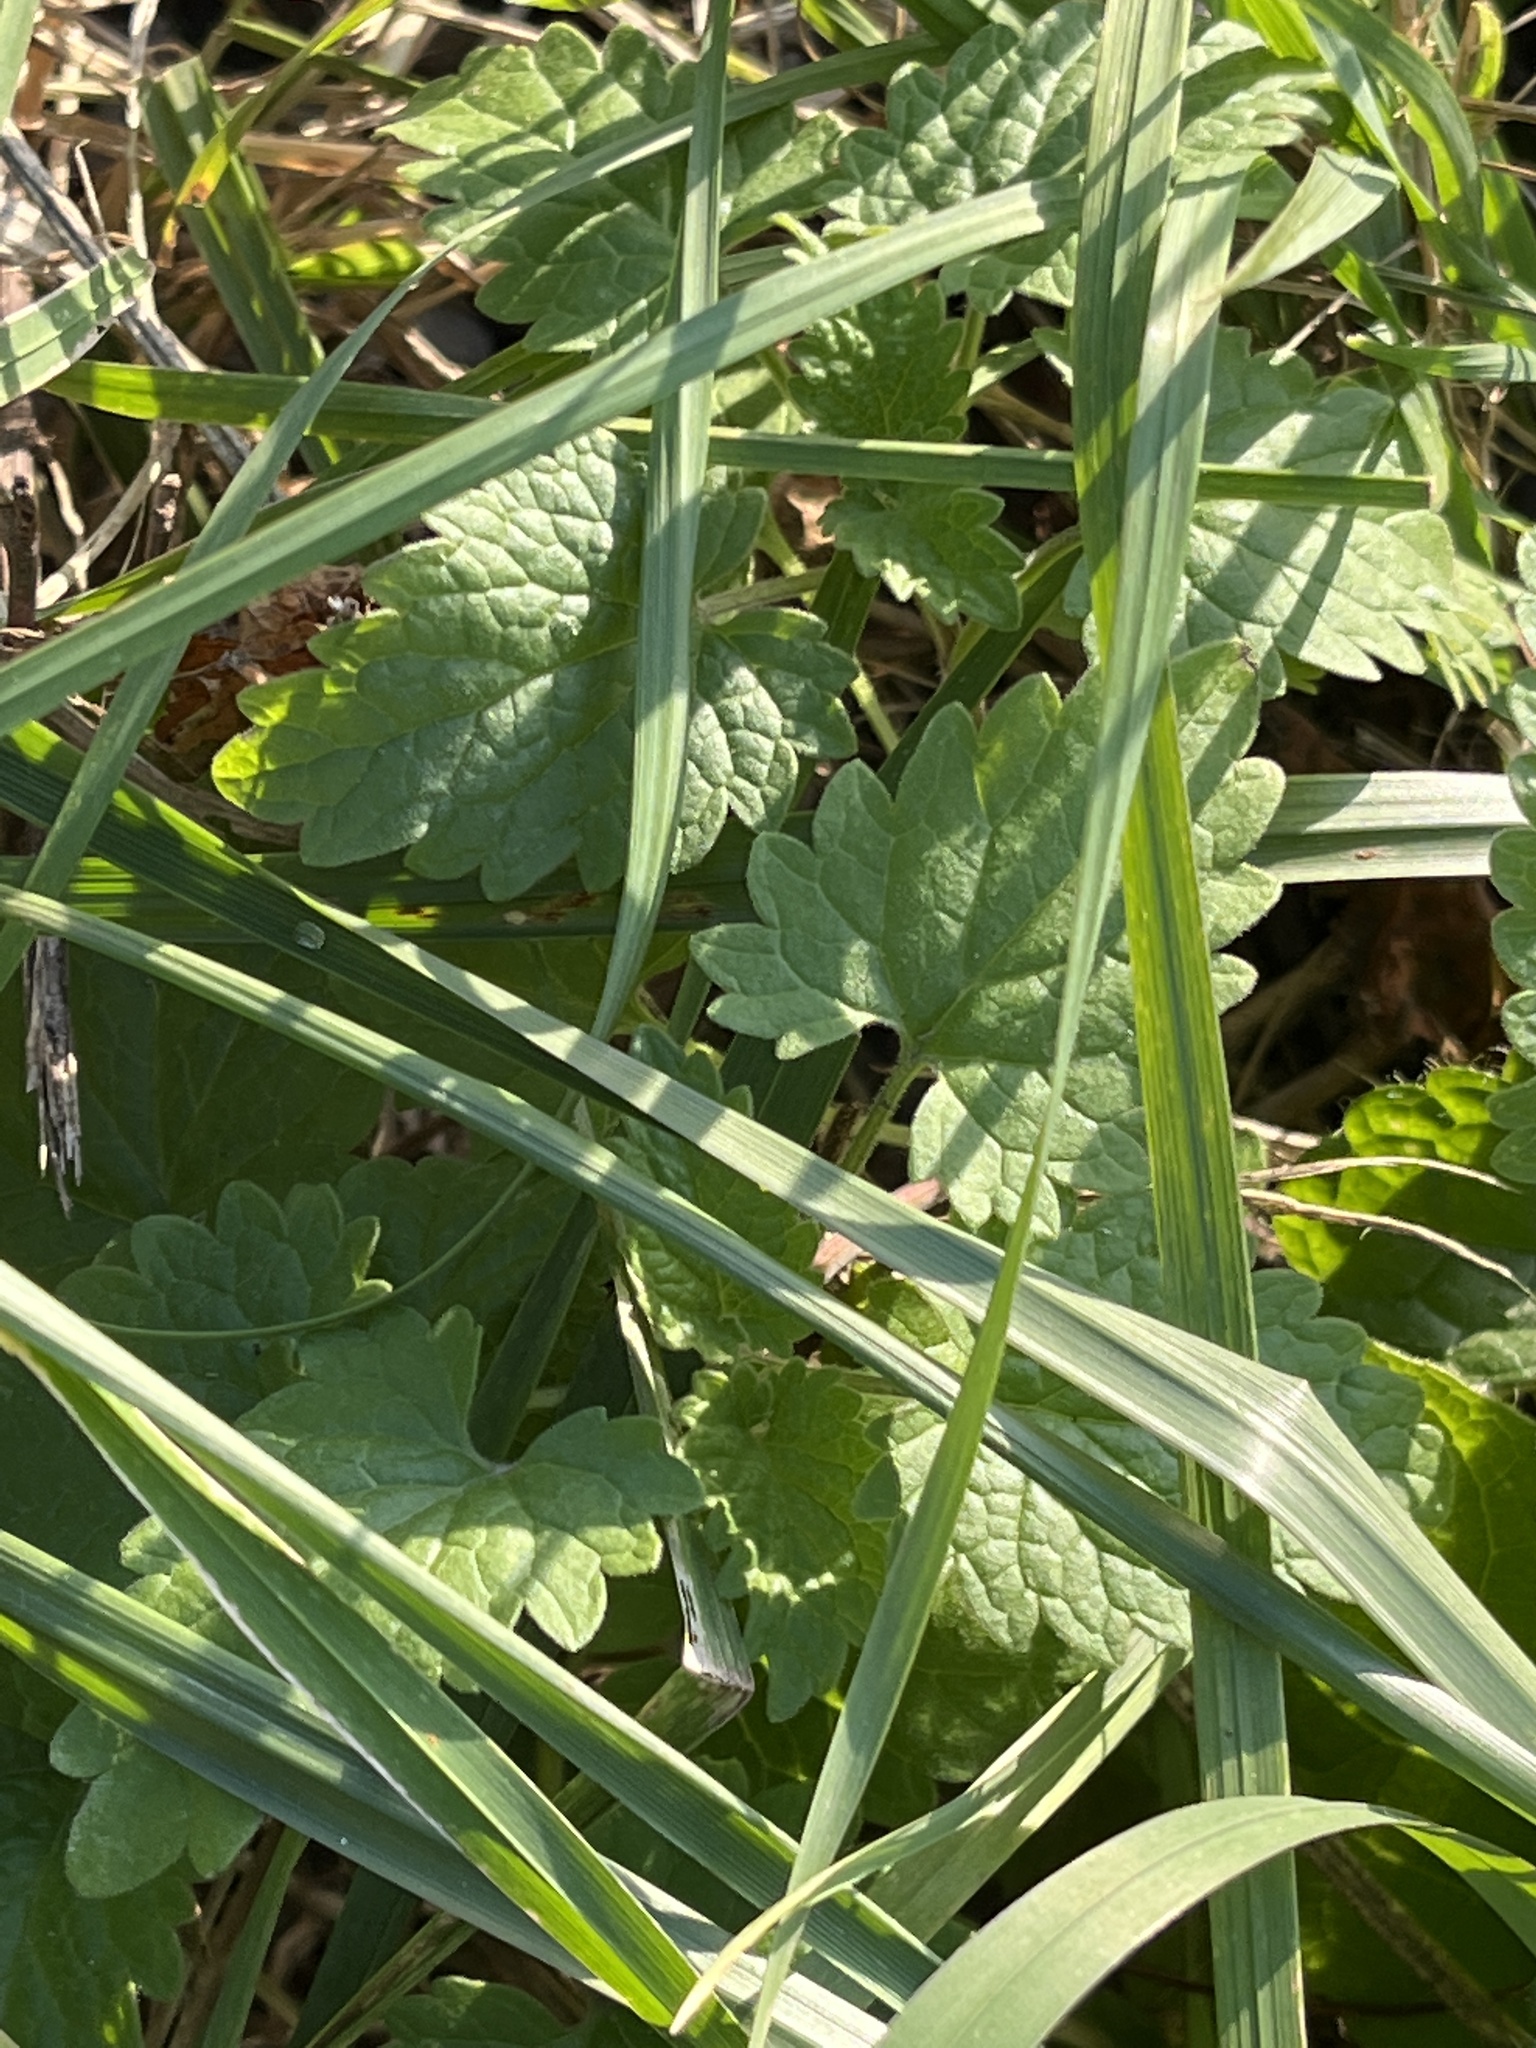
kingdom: Plantae
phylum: Tracheophyta
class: Magnoliopsida
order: Lamiales
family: Lamiaceae
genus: Nepeta
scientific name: Nepeta cataria
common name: Catnip
